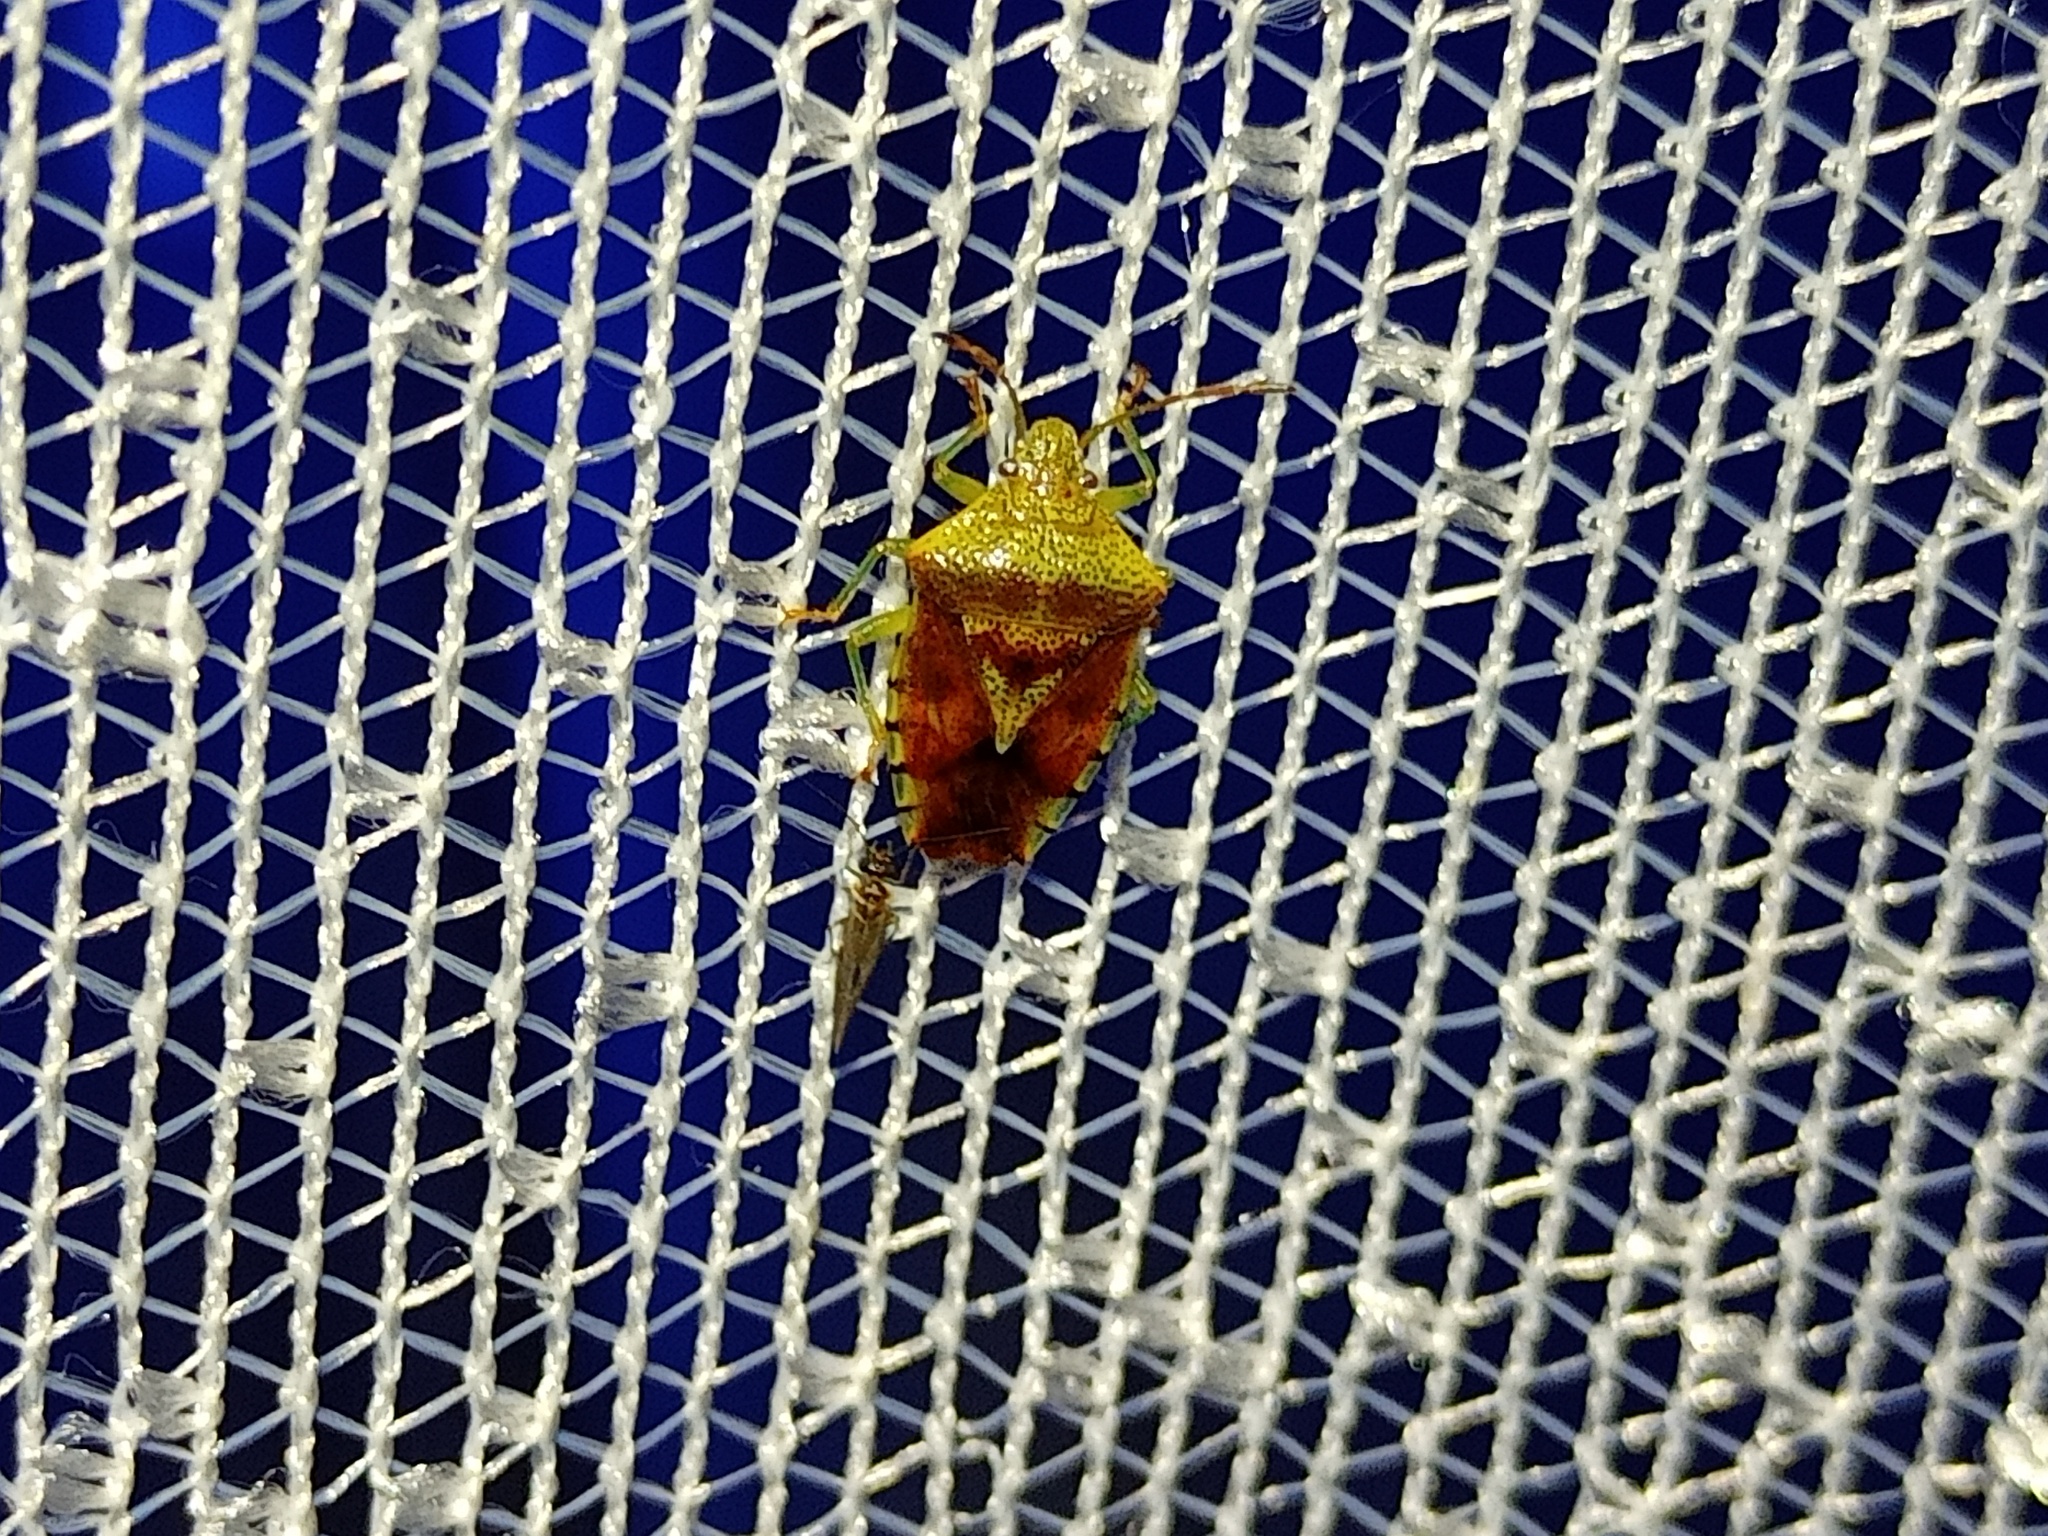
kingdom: Animalia
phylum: Arthropoda
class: Insecta
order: Hemiptera
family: Acanthosomatidae
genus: Elasmucha
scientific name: Elasmucha grisea
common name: Parent bug
